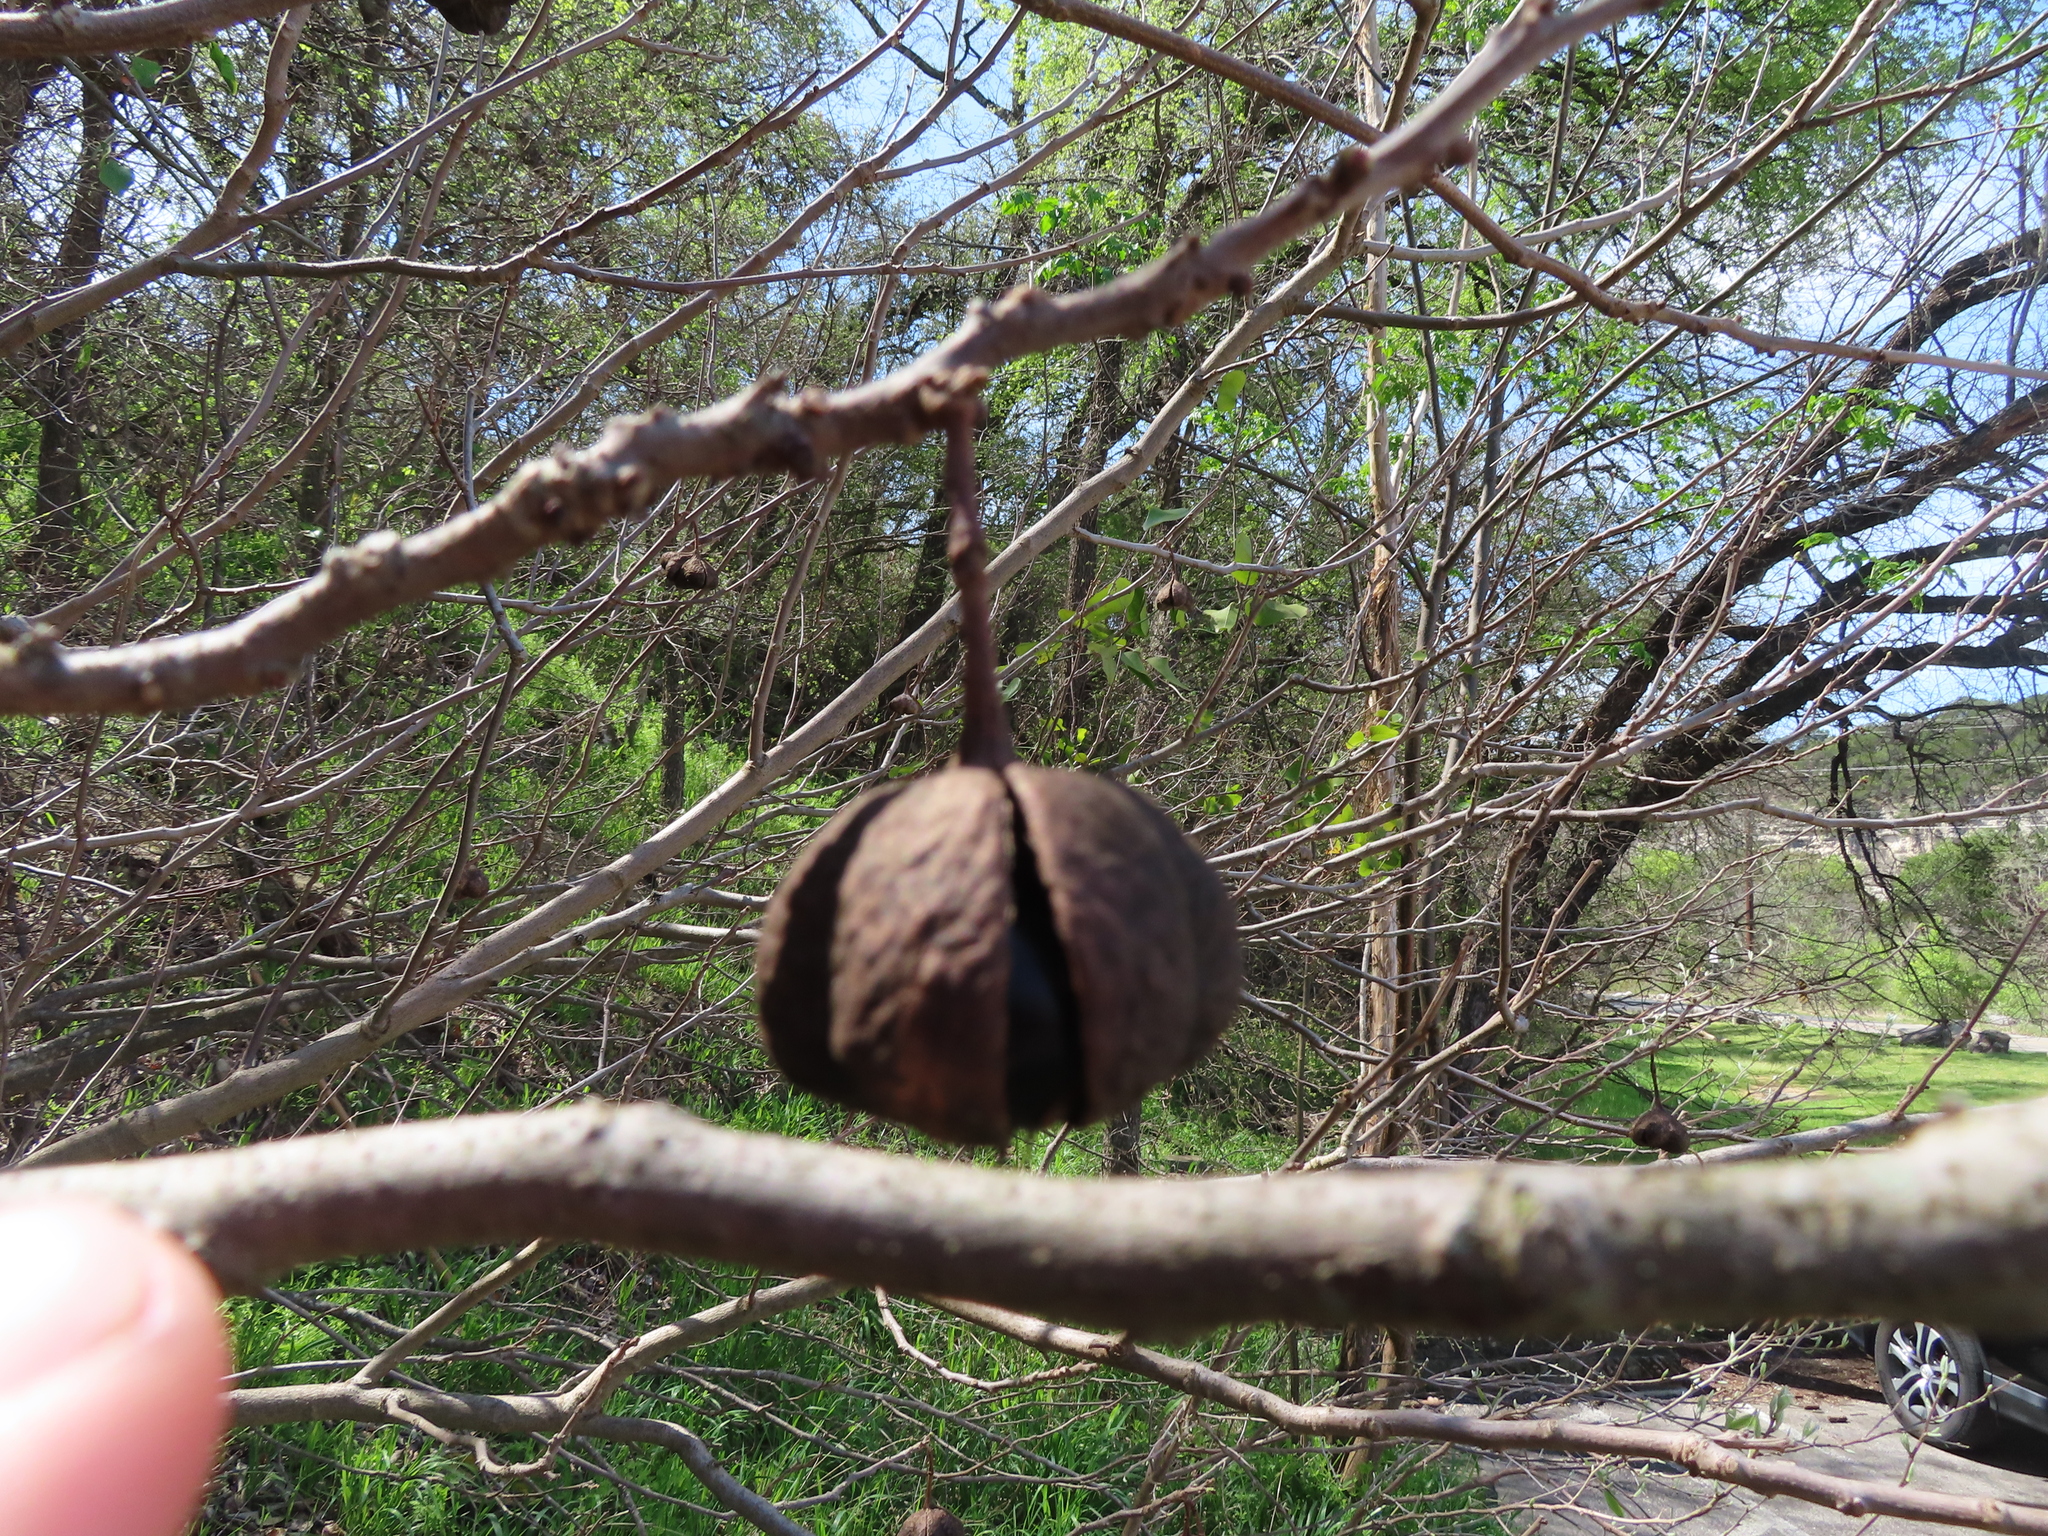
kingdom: Plantae
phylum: Tracheophyta
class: Magnoliopsida
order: Sapindales
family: Sapindaceae
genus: Ungnadia
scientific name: Ungnadia speciosa
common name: Texas-buckeye
